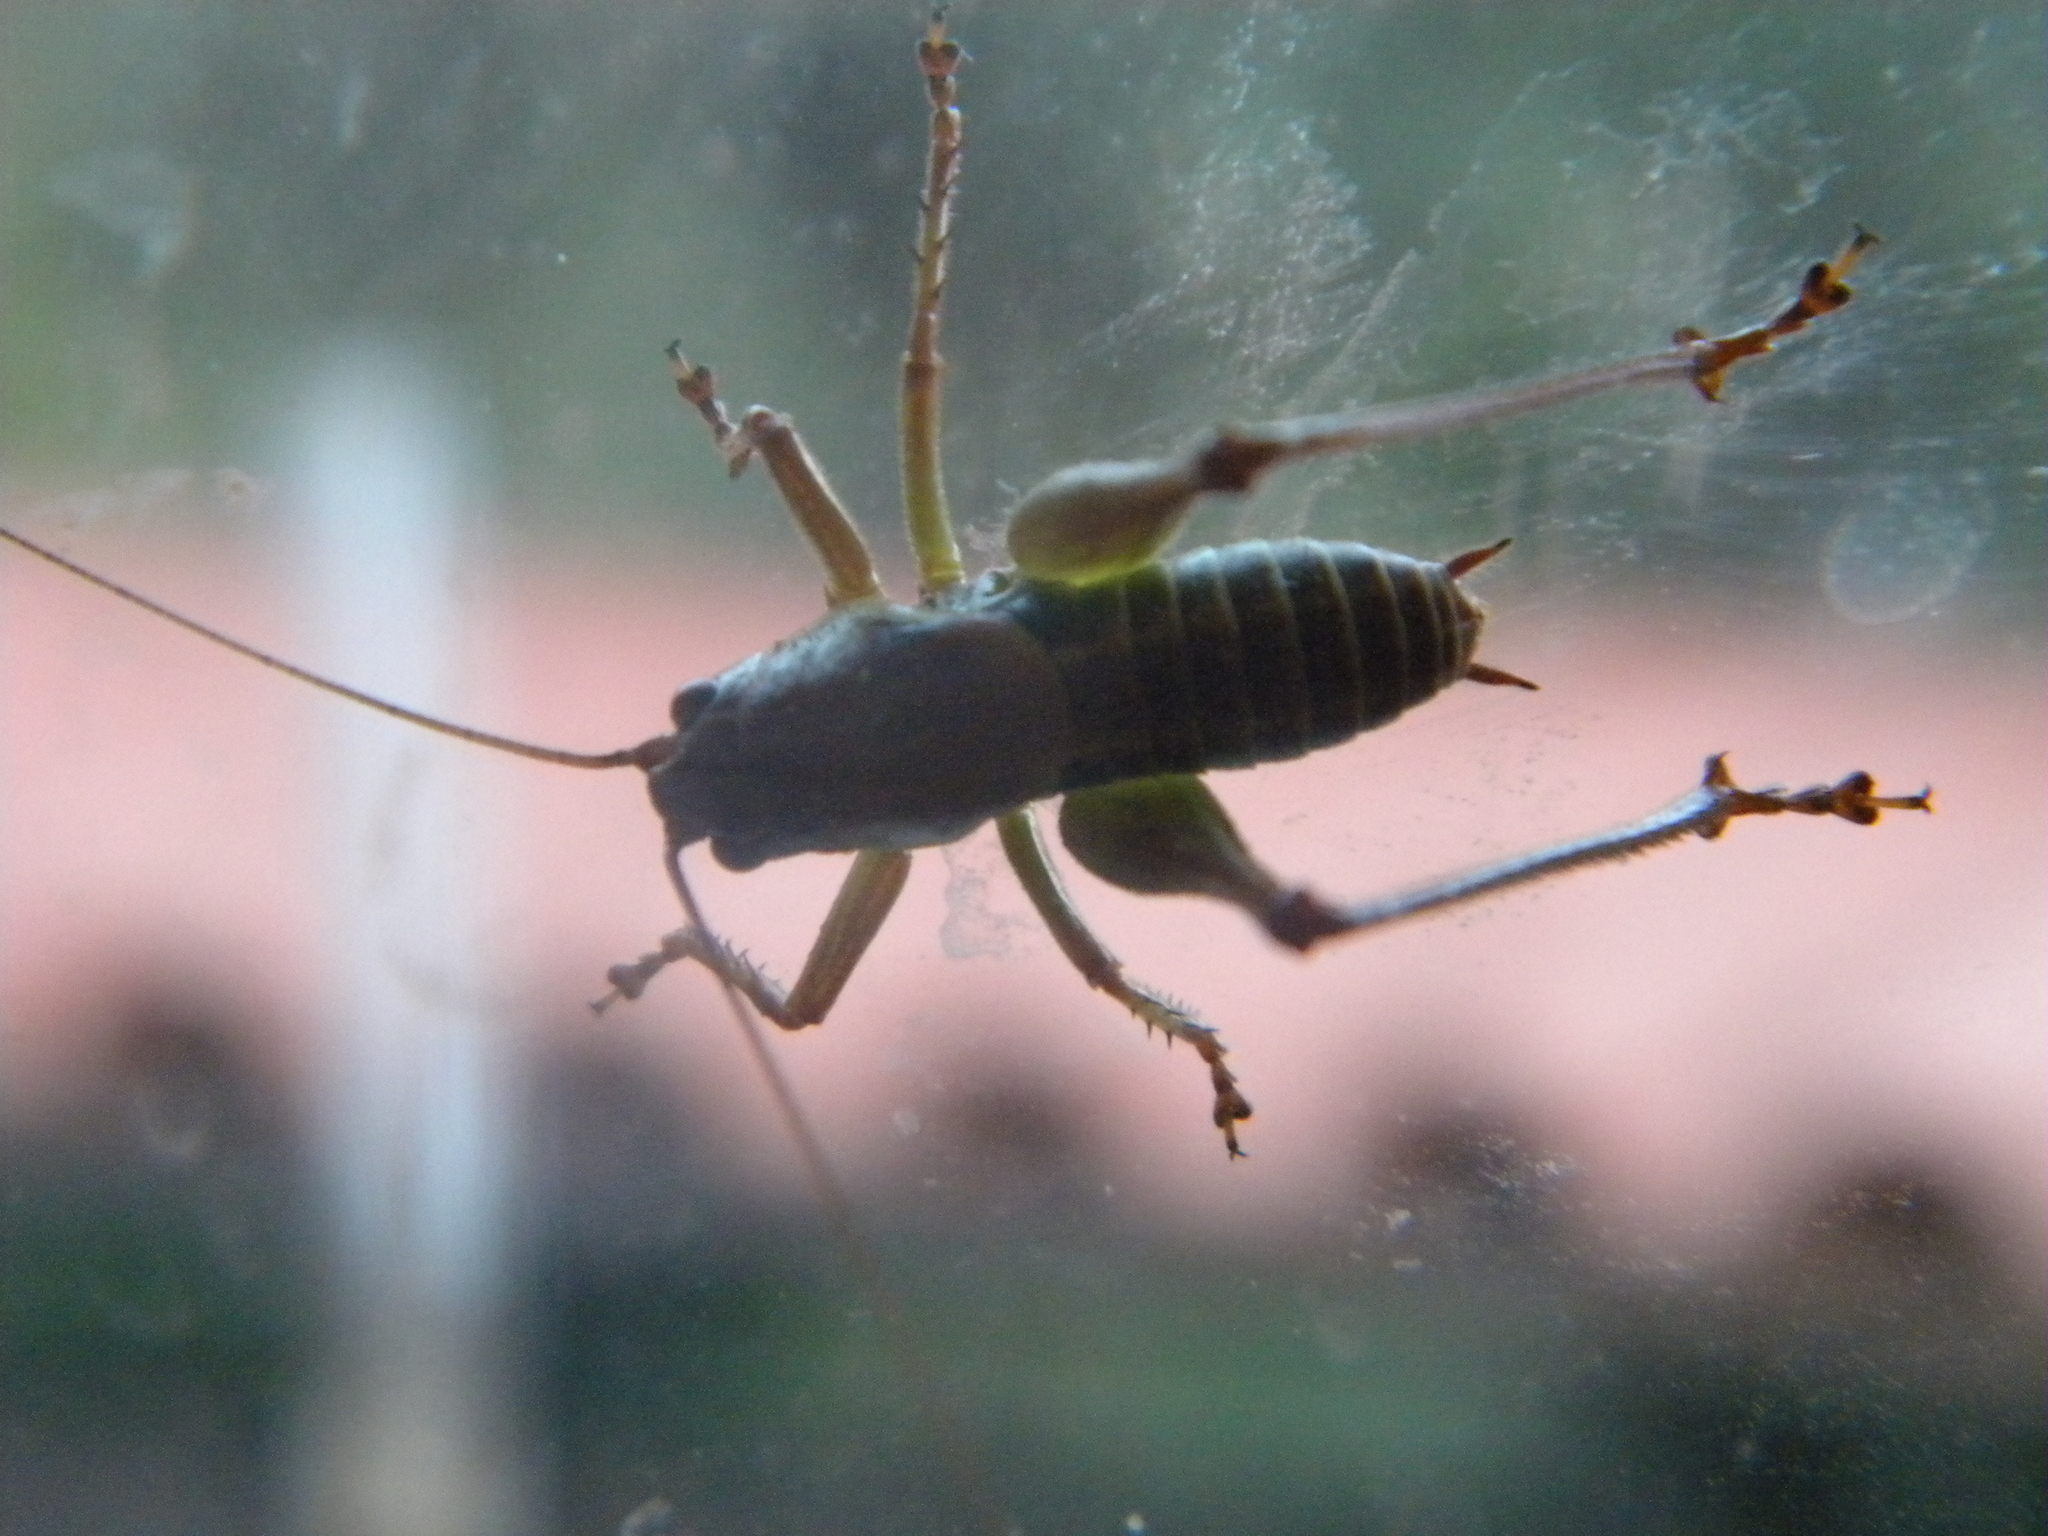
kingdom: Animalia
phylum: Arthropoda
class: Insecta
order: Orthoptera
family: Tettigoniidae
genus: Eupholidoptera
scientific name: Eupholidoptera prasina
